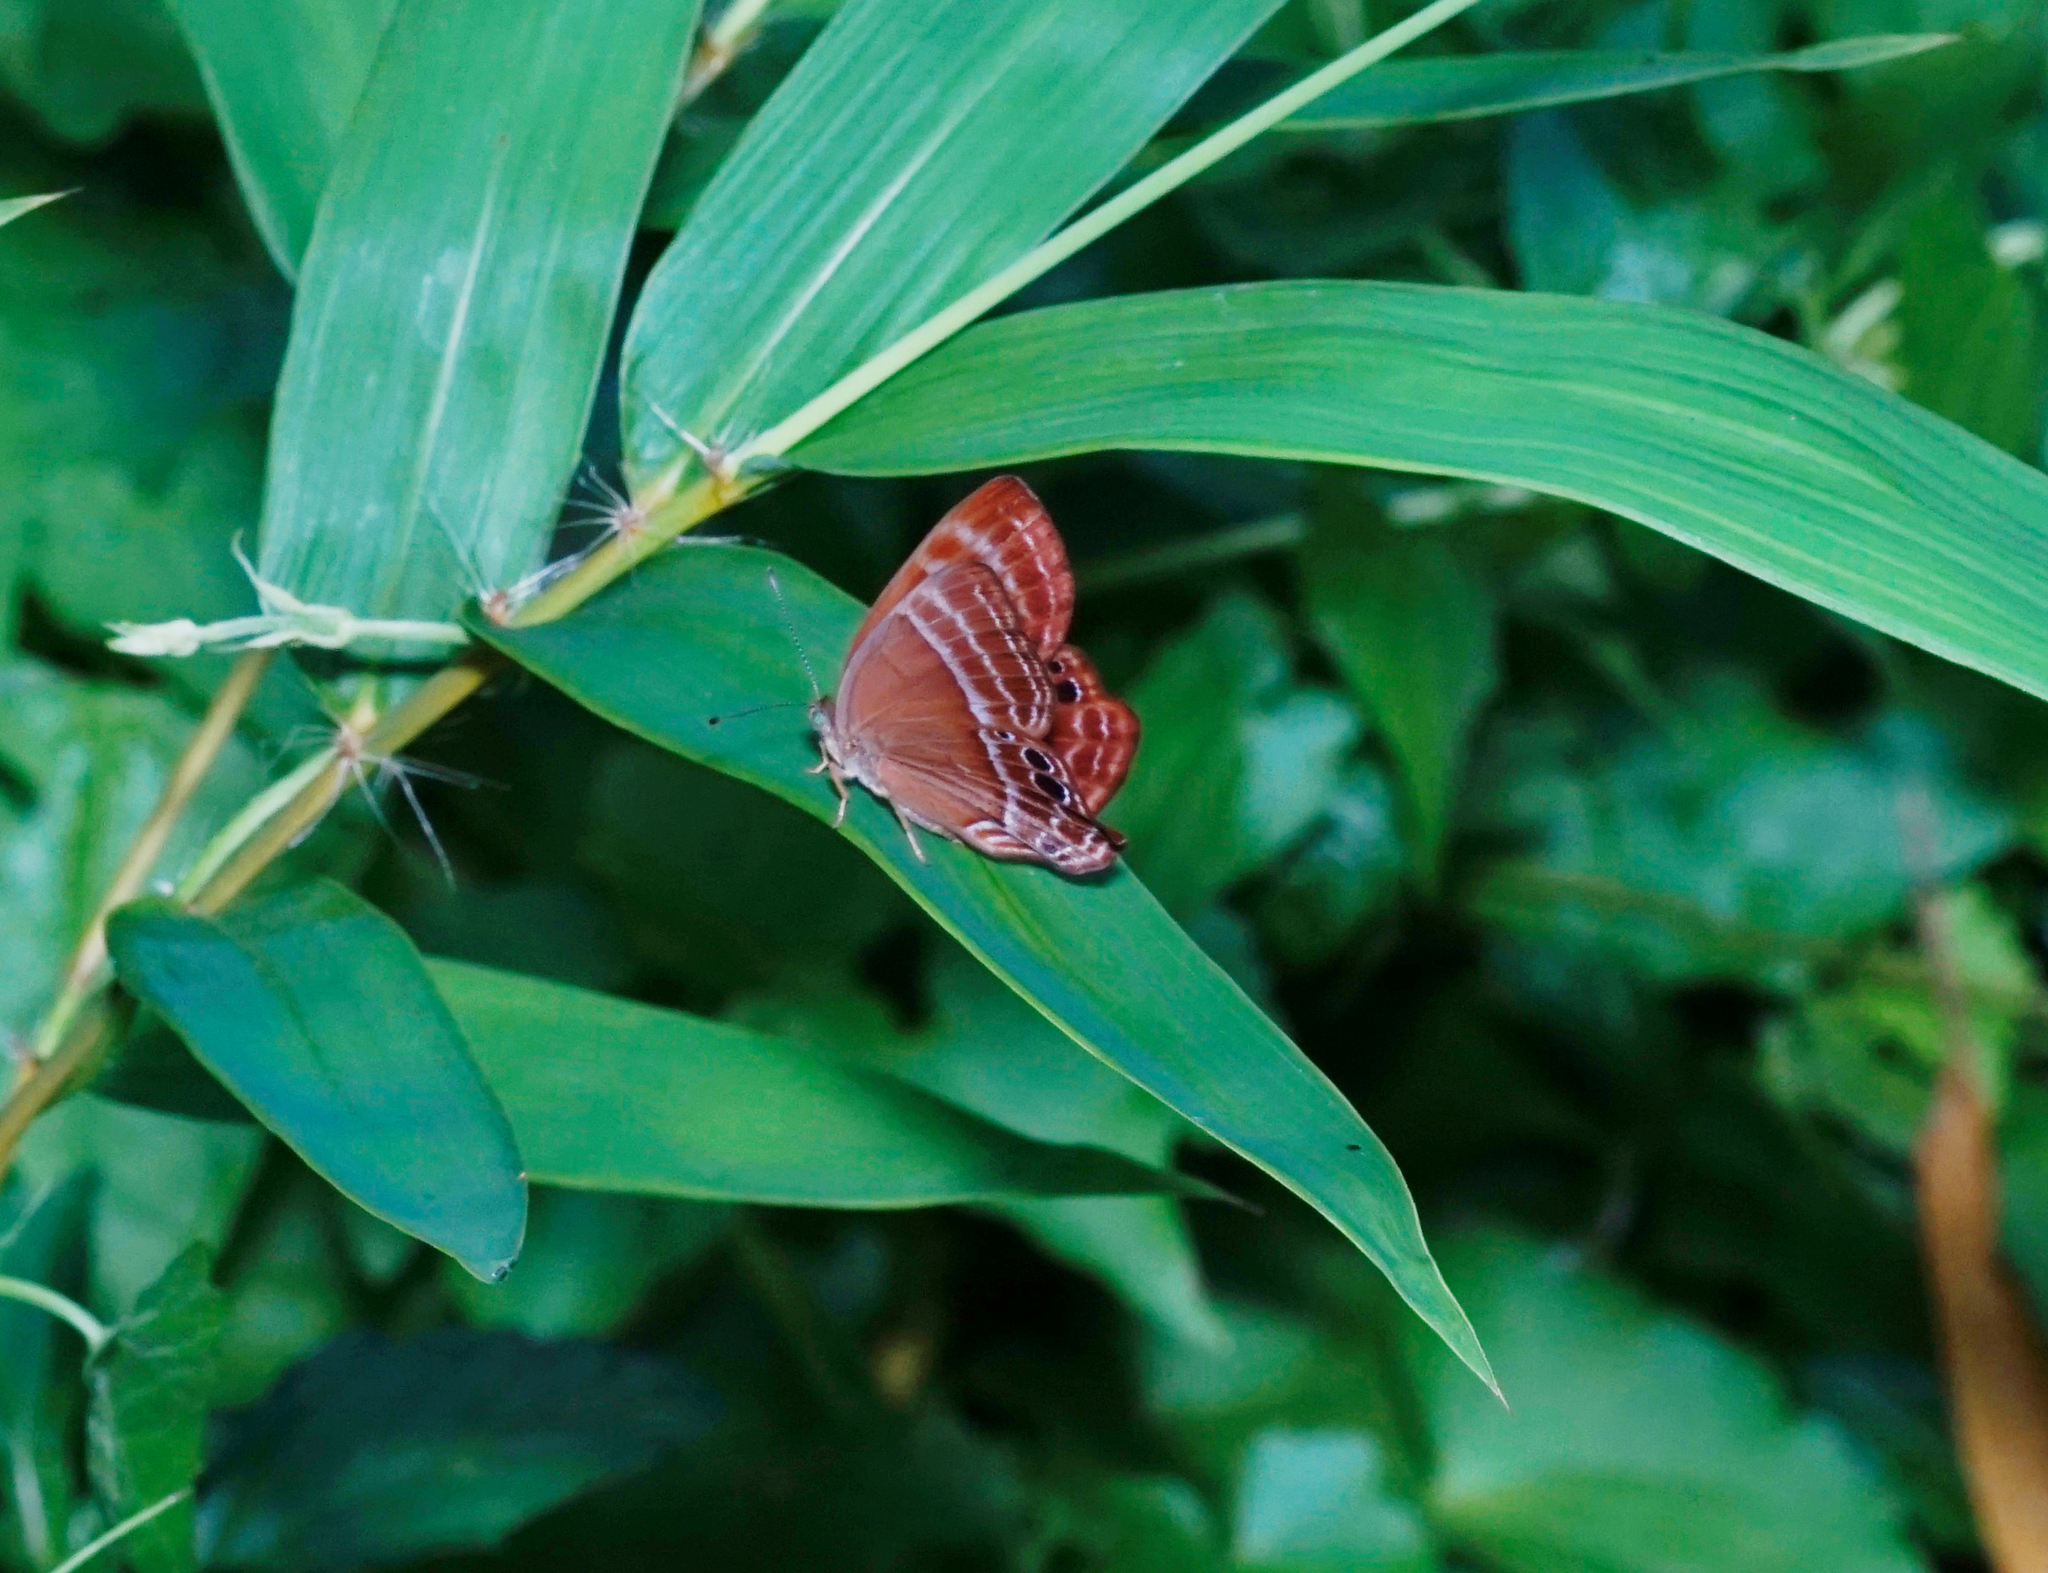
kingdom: Animalia
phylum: Arthropoda
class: Insecta
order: Lepidoptera
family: Lycaenidae
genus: Abisara
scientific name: Abisara echeria
